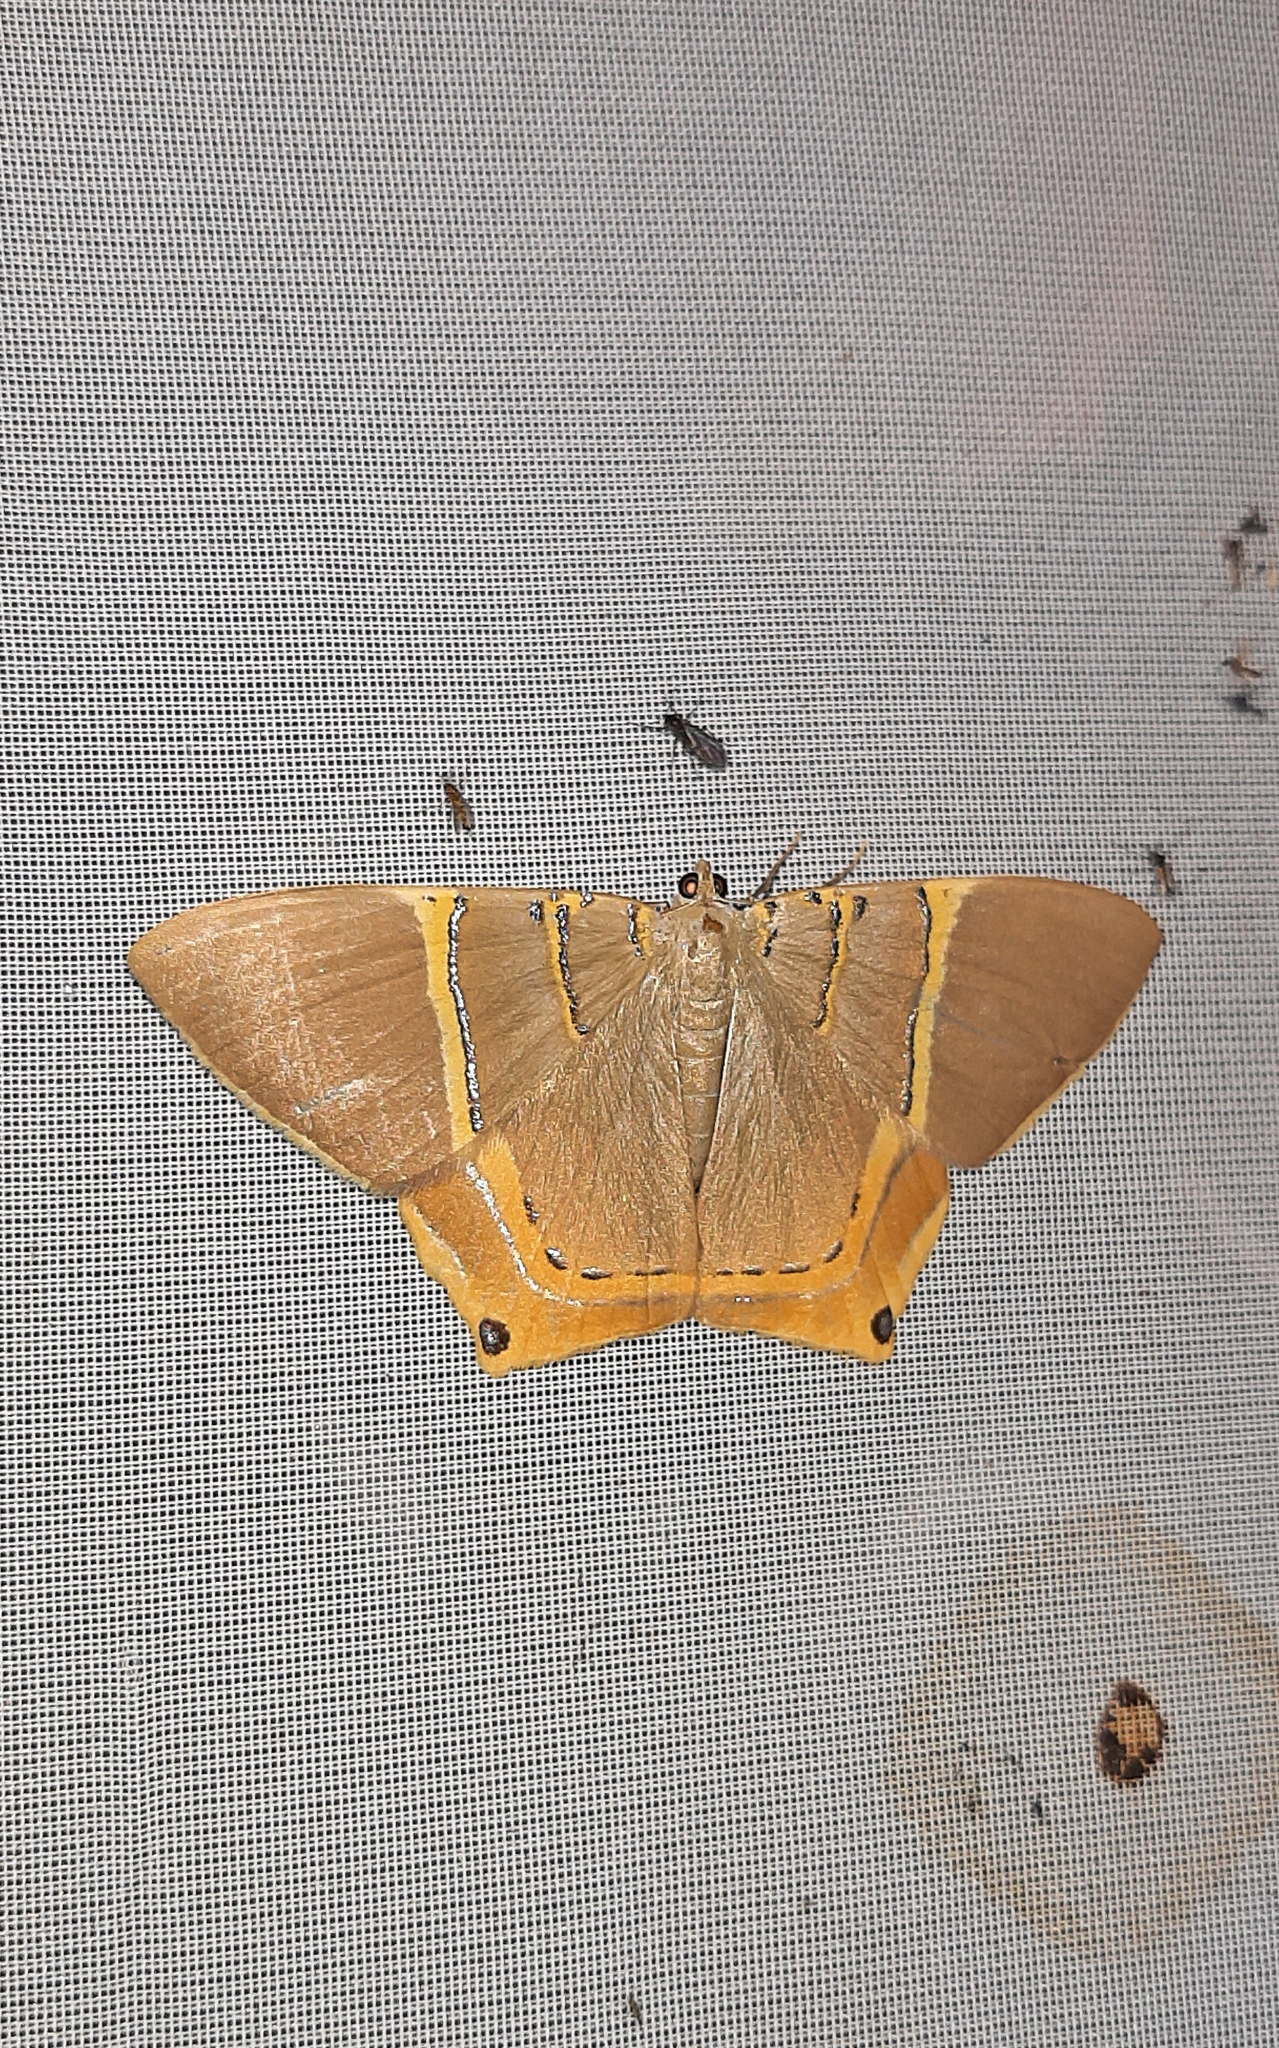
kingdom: Animalia
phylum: Arthropoda
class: Insecta
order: Lepidoptera
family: Geometridae
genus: Phrygionis
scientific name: Phrygionis polita
